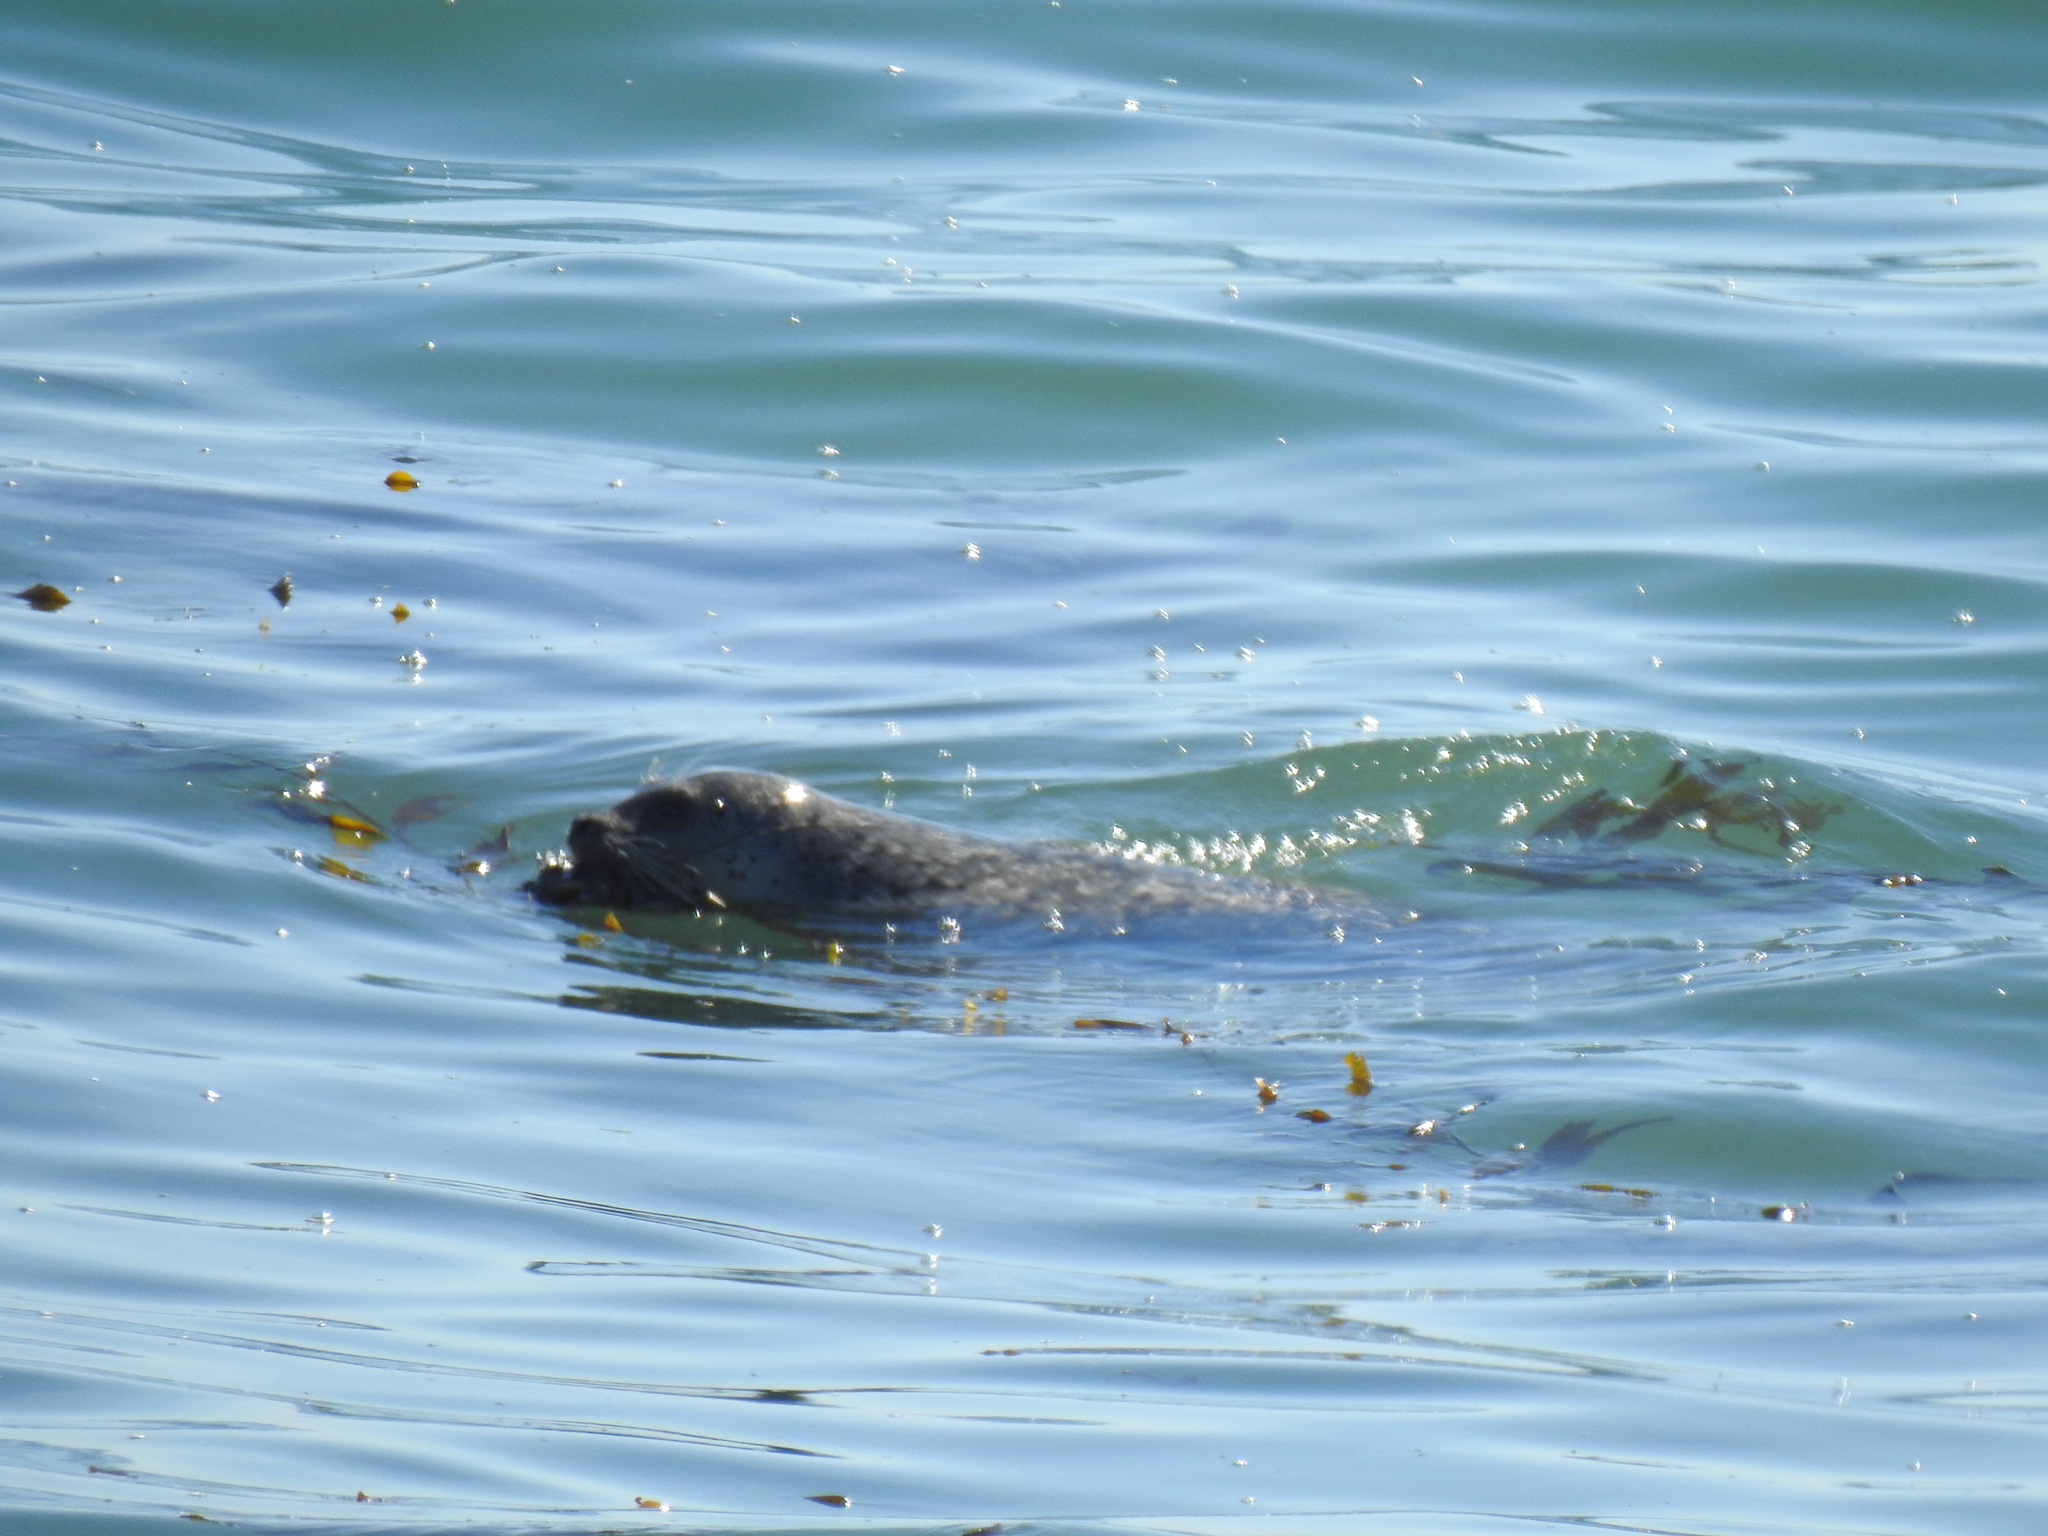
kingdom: Animalia
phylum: Chordata
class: Mammalia
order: Carnivora
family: Phocidae
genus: Phoca
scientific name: Phoca vitulina
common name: Harbor seal
